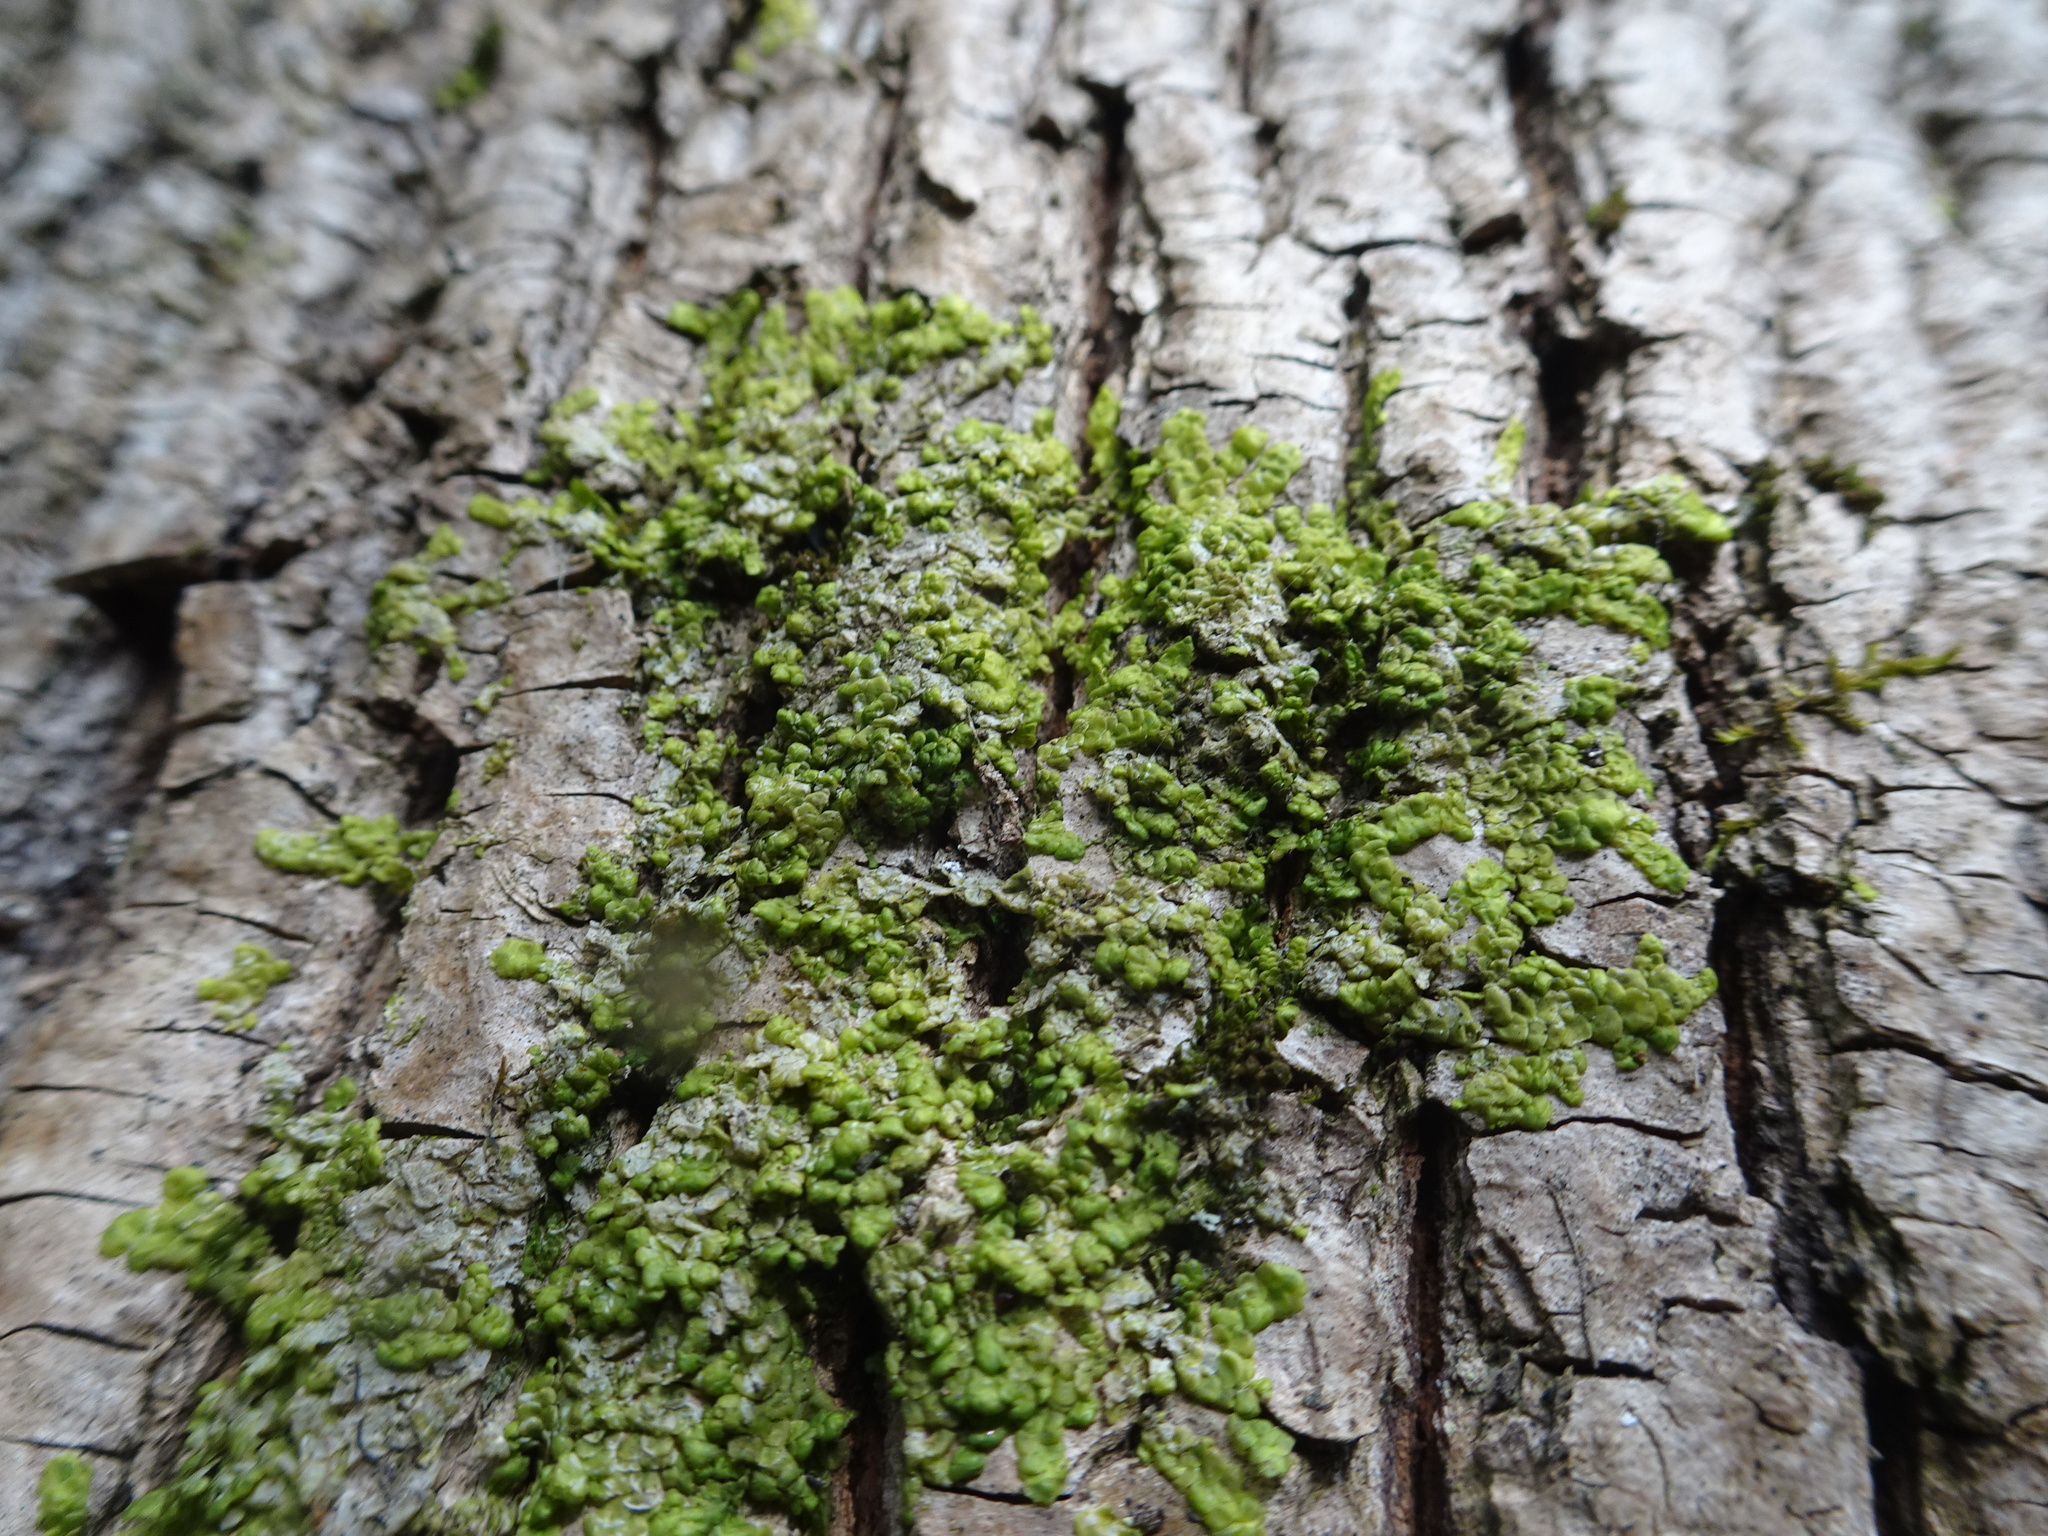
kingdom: Plantae
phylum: Marchantiophyta
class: Jungermanniopsida
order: Porellales
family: Radulaceae
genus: Radula
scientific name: Radula complanata
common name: Flat-leaved scalewort
